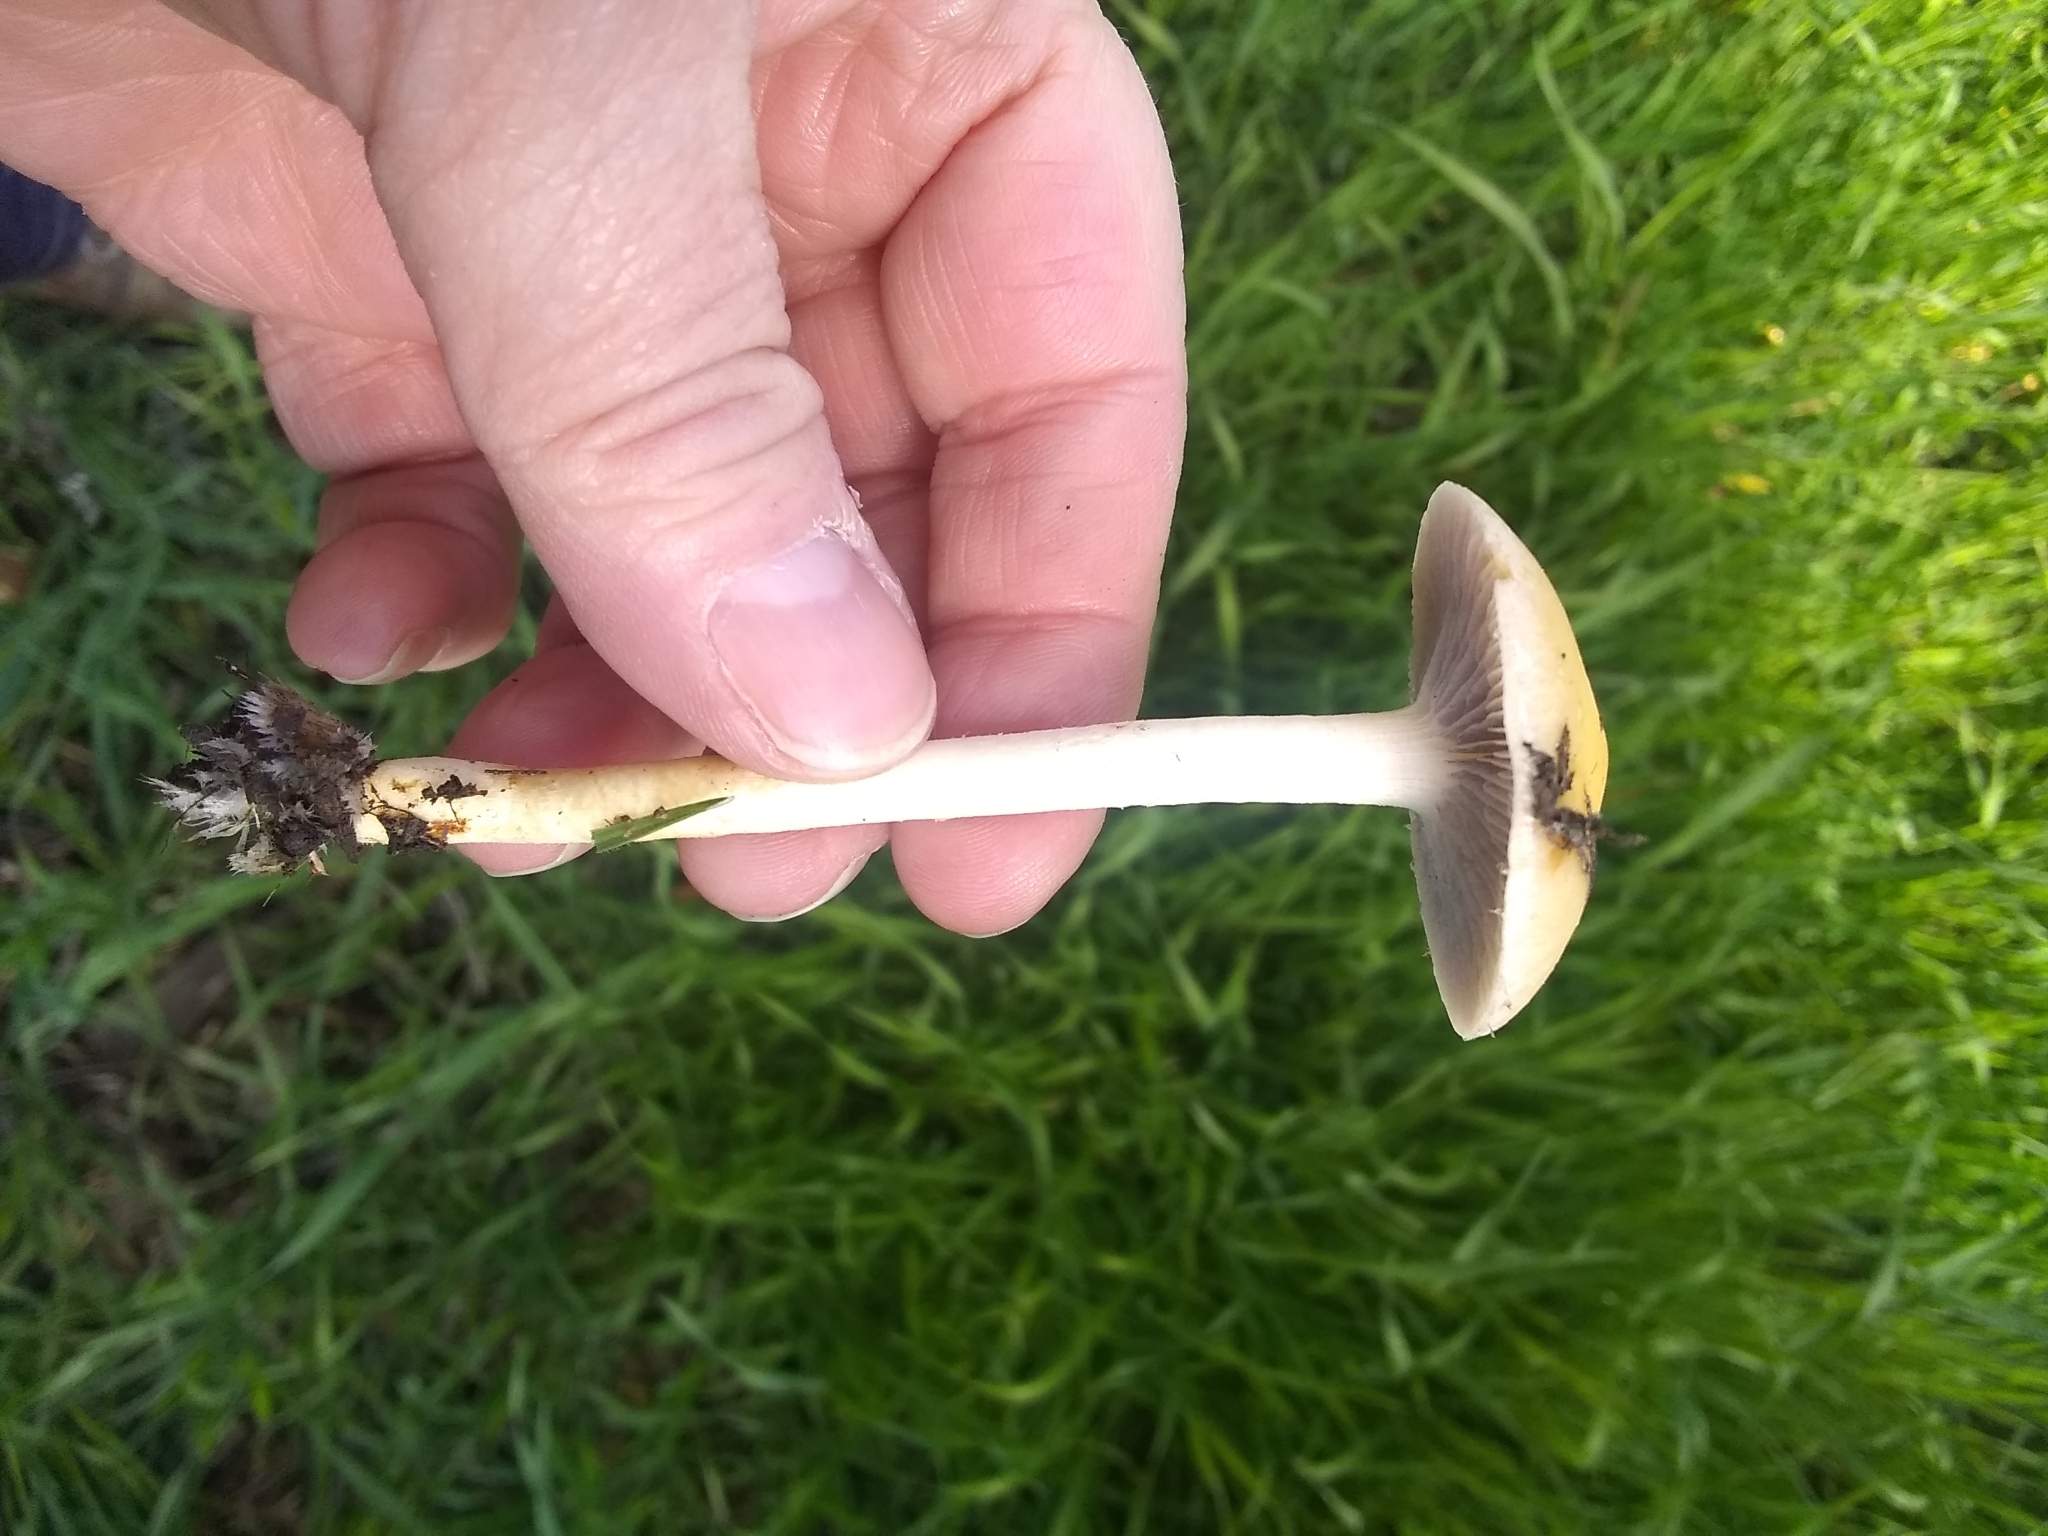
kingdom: Fungi
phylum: Basidiomycota
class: Agaricomycetes
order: Agaricales
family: Strophariaceae
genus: Leratiomyces
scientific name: Leratiomyces percevalii
